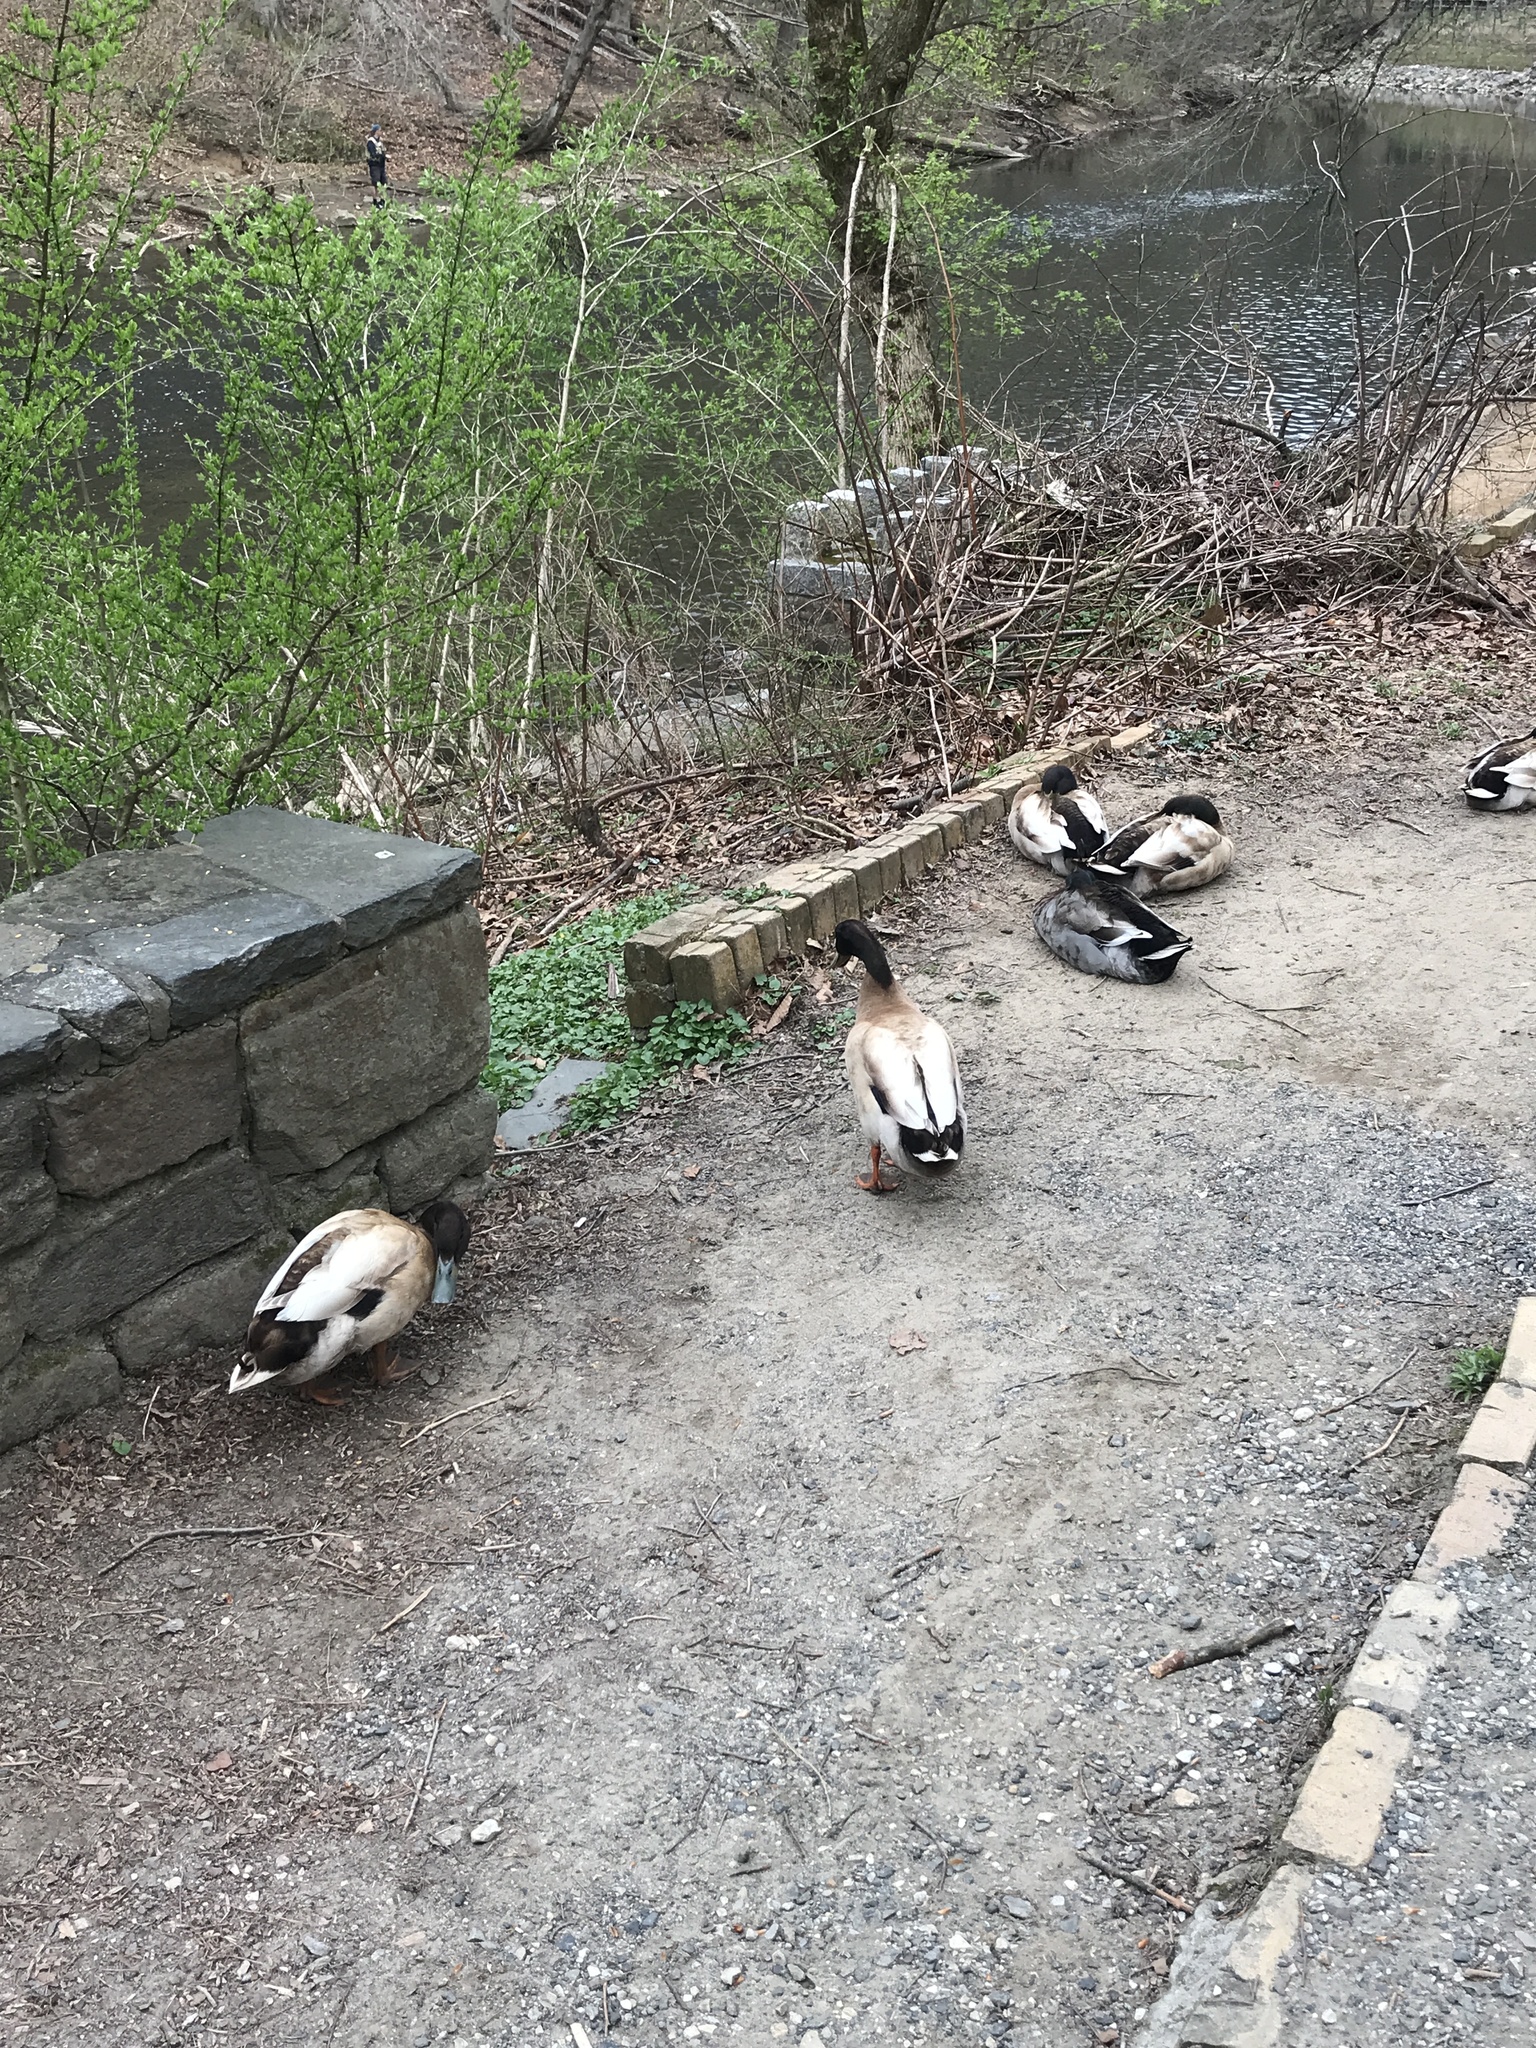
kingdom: Animalia
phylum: Chordata
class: Aves
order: Anseriformes
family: Anatidae
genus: Anas
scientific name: Anas platyrhynchos
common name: Mallard
